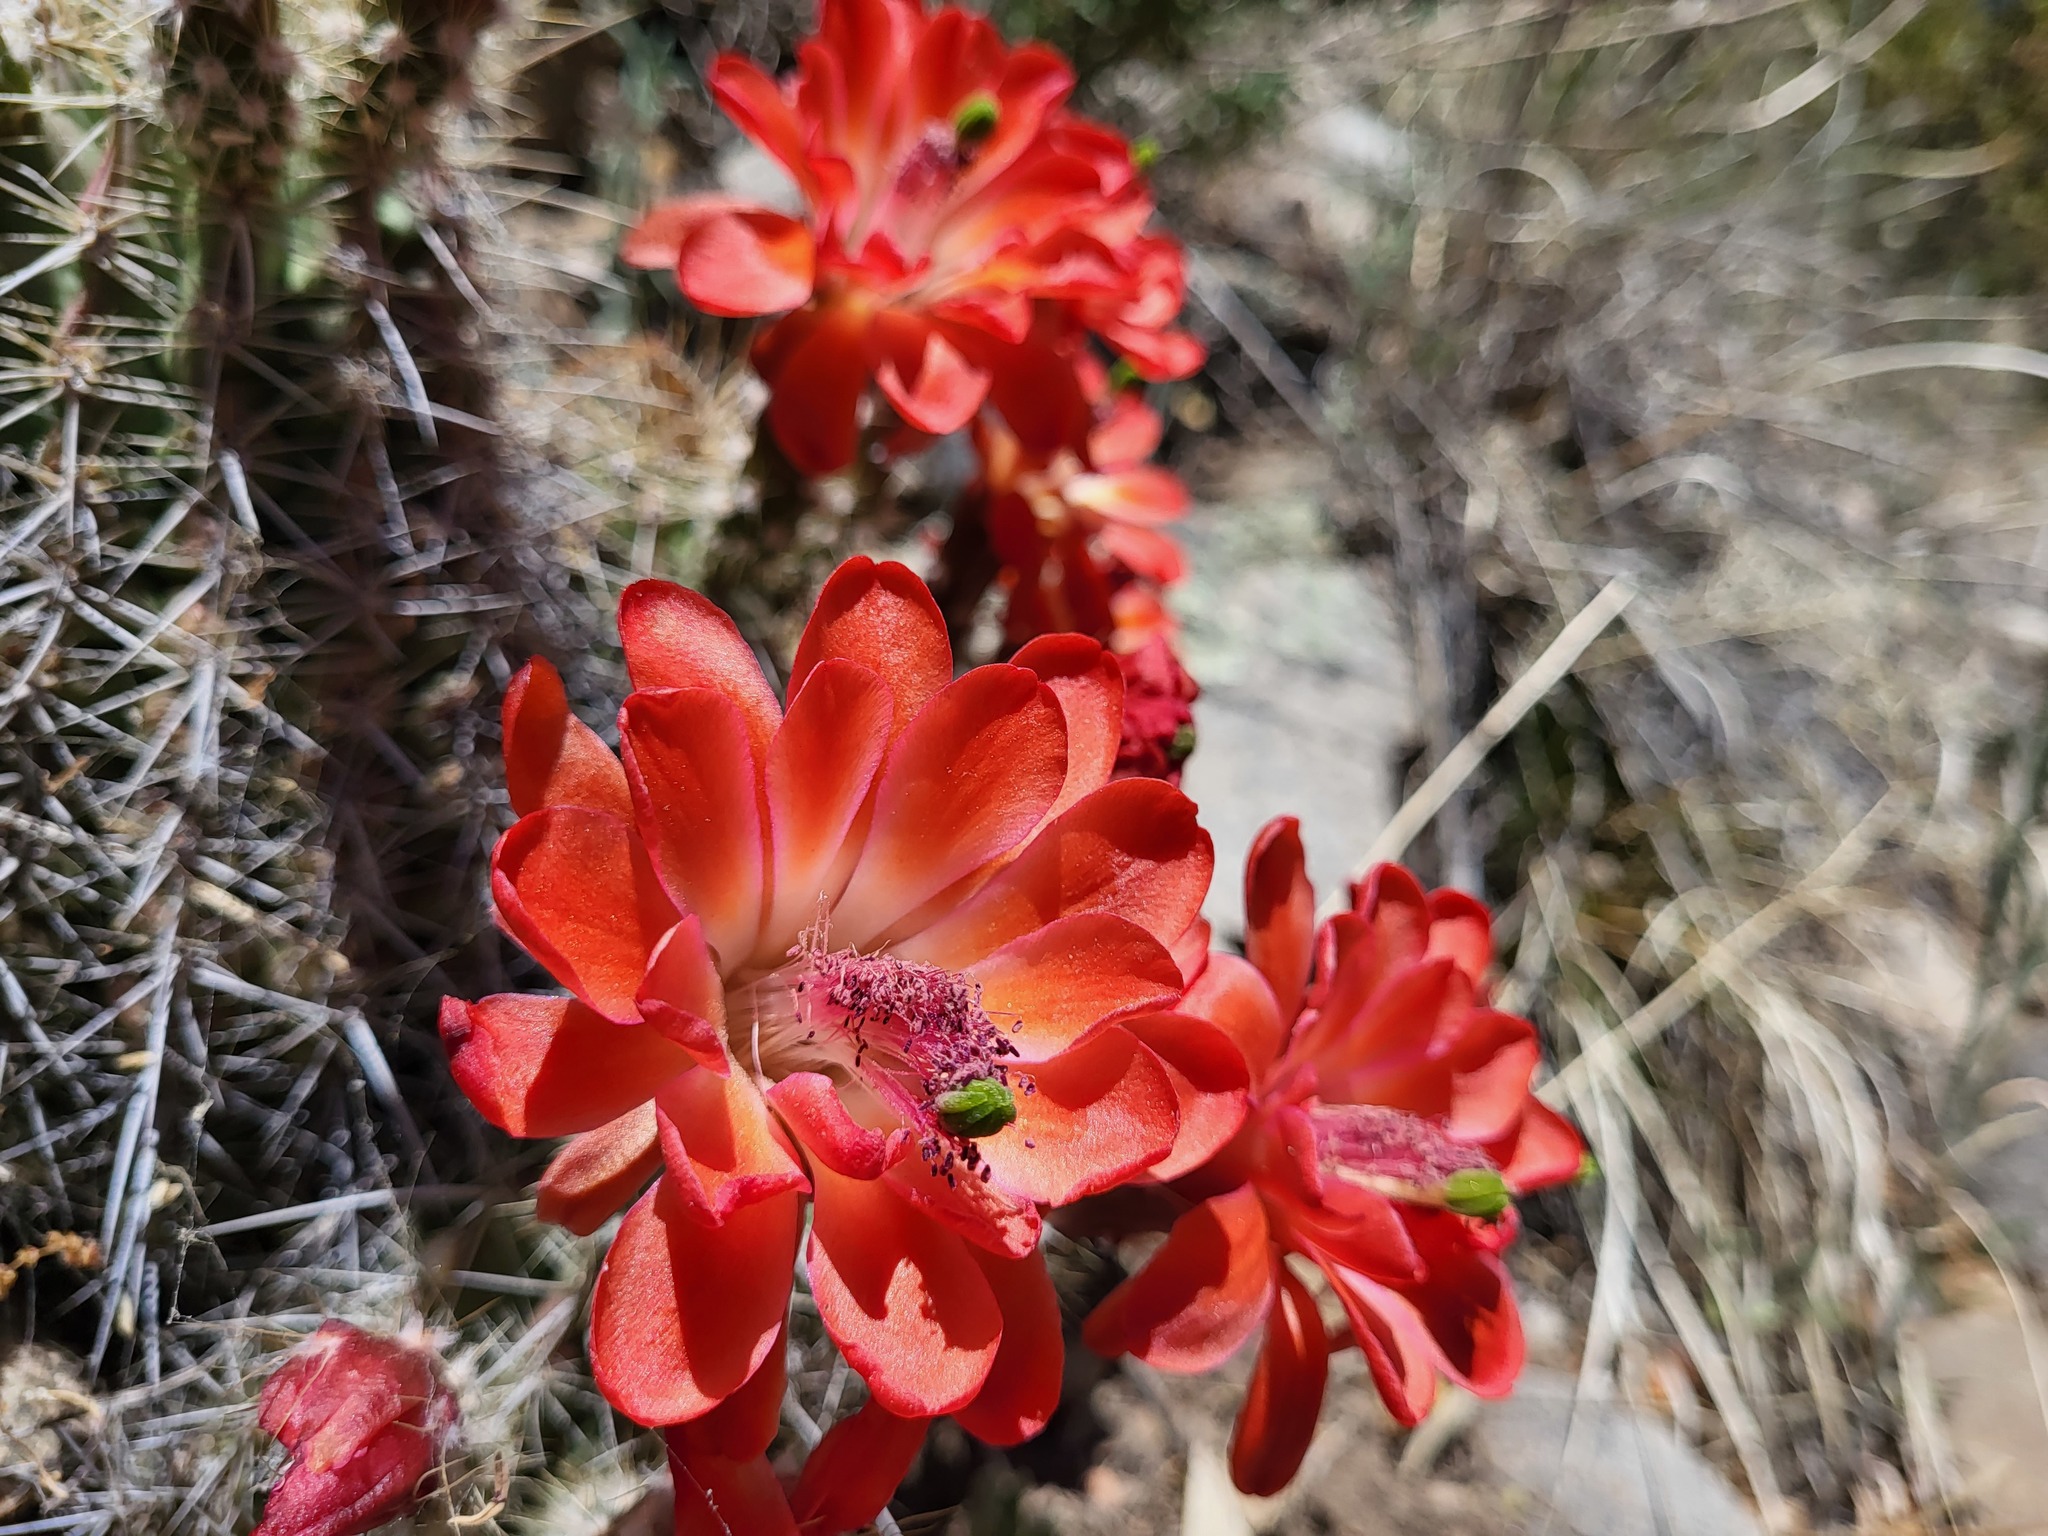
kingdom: Plantae
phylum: Tracheophyta
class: Magnoliopsida
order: Caryophyllales
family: Cactaceae
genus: Echinocereus
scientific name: Echinocereus coccineus
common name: Scarlet hedgehog cactus
